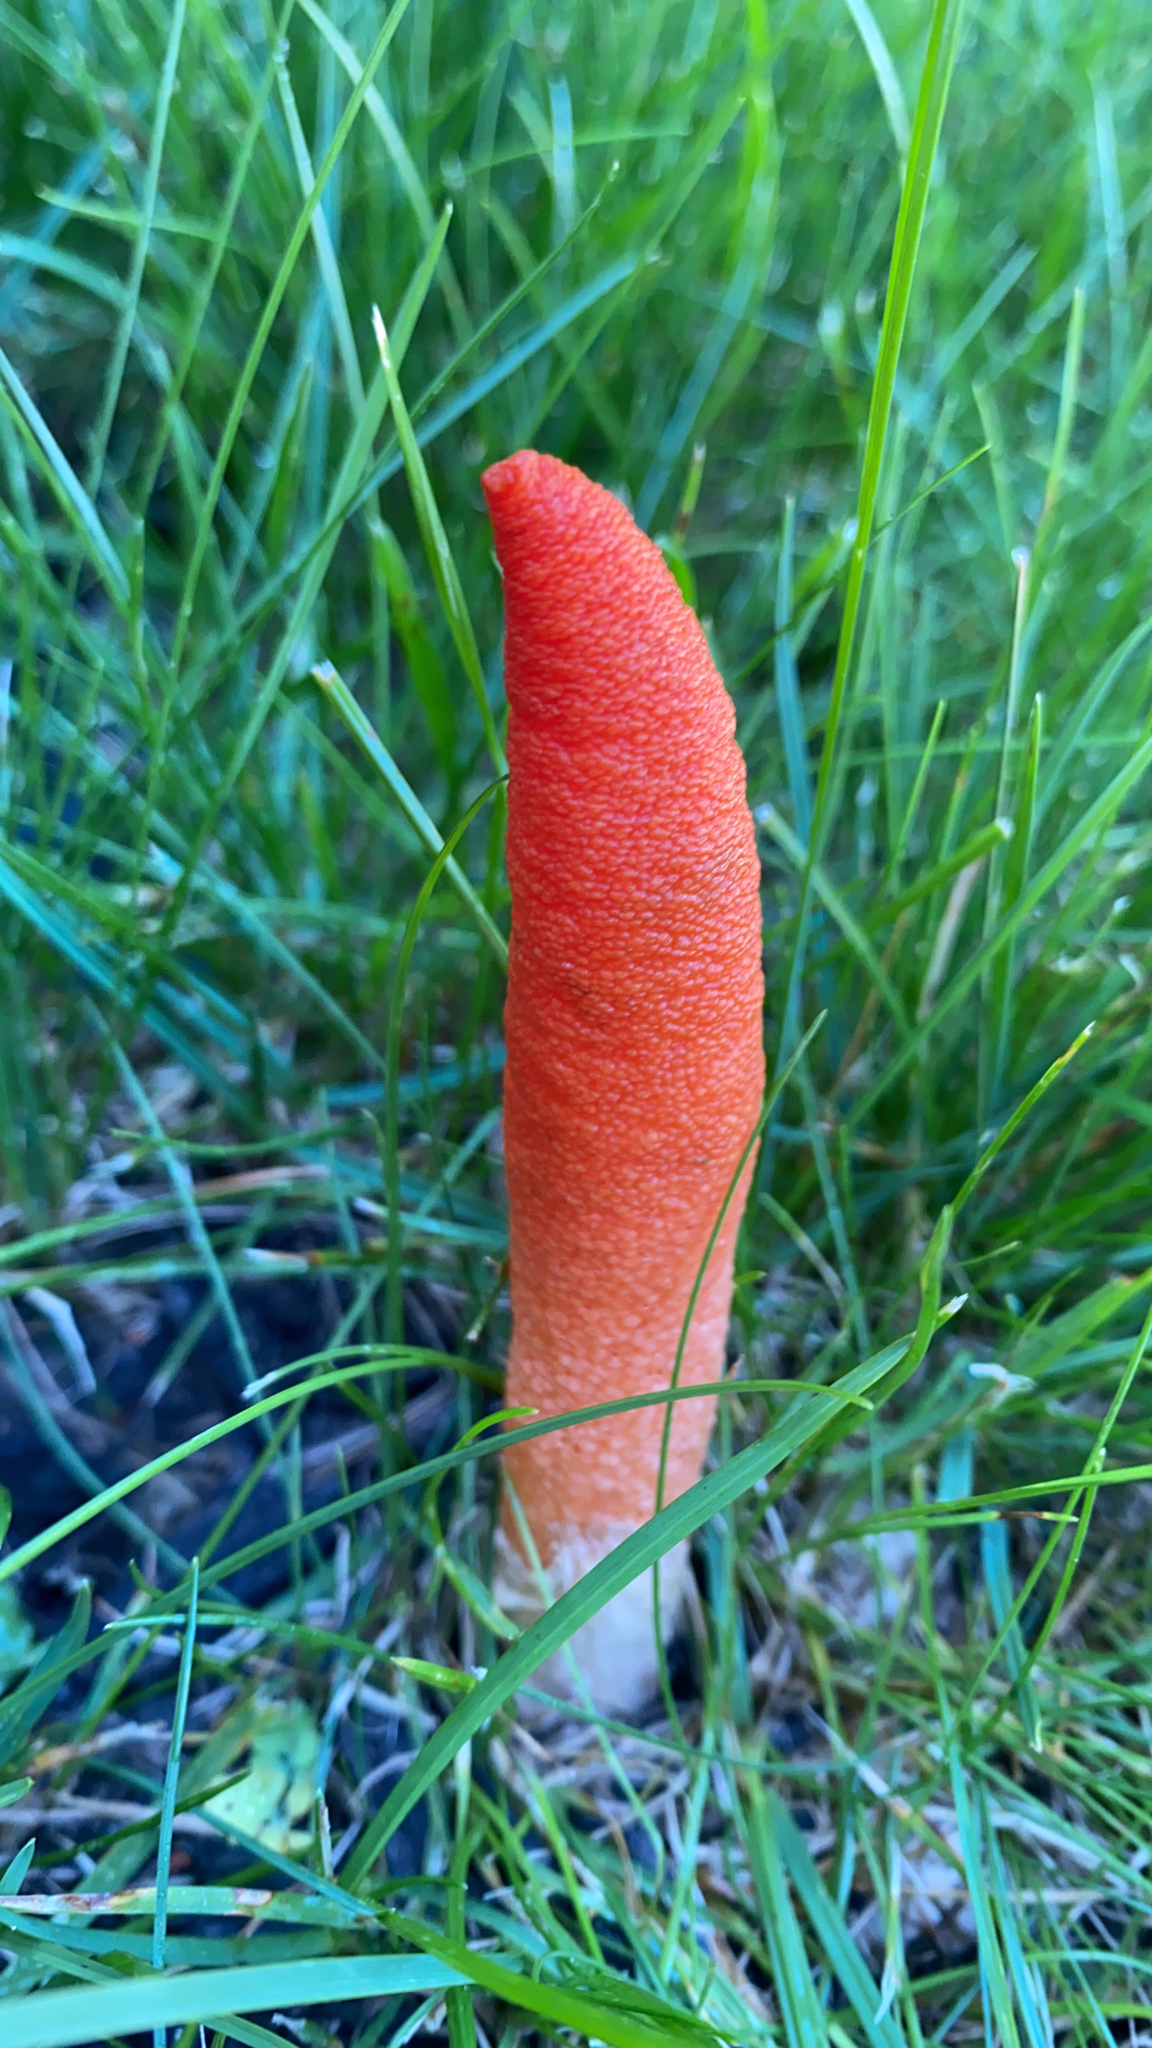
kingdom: Fungi
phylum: Basidiomycota
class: Agaricomycetes
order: Phallales
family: Phallaceae
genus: Mutinus
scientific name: Mutinus elegans
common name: Devil's dipstick
